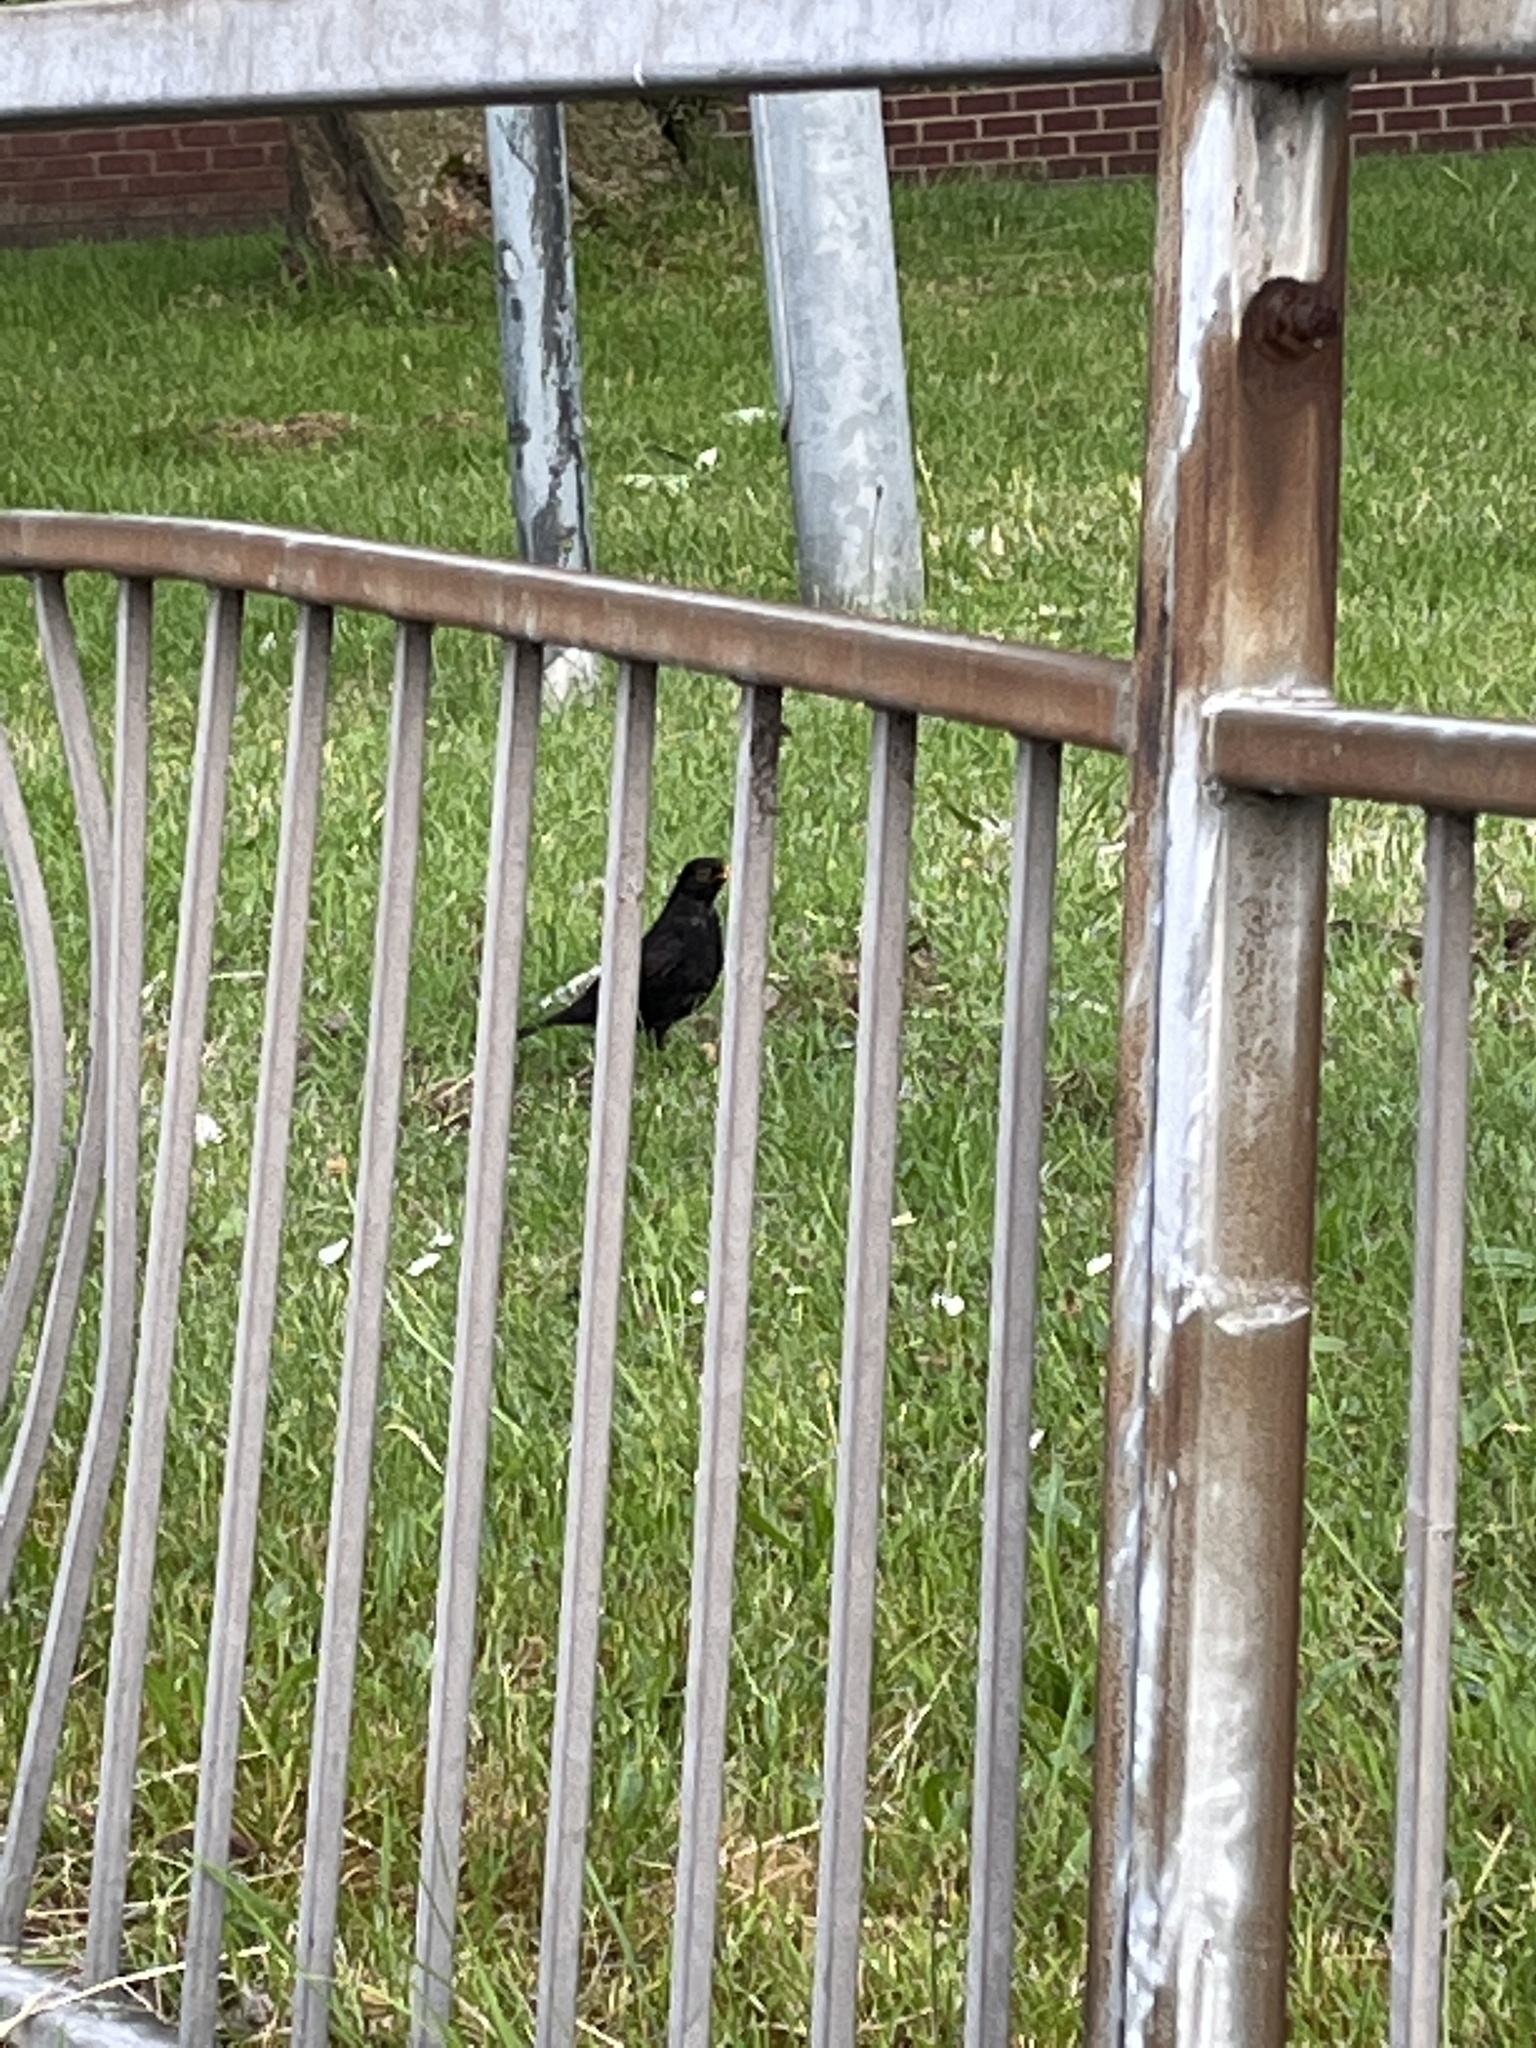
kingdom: Animalia
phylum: Chordata
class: Aves
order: Passeriformes
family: Turdidae
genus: Turdus
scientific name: Turdus merula
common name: Common blackbird
